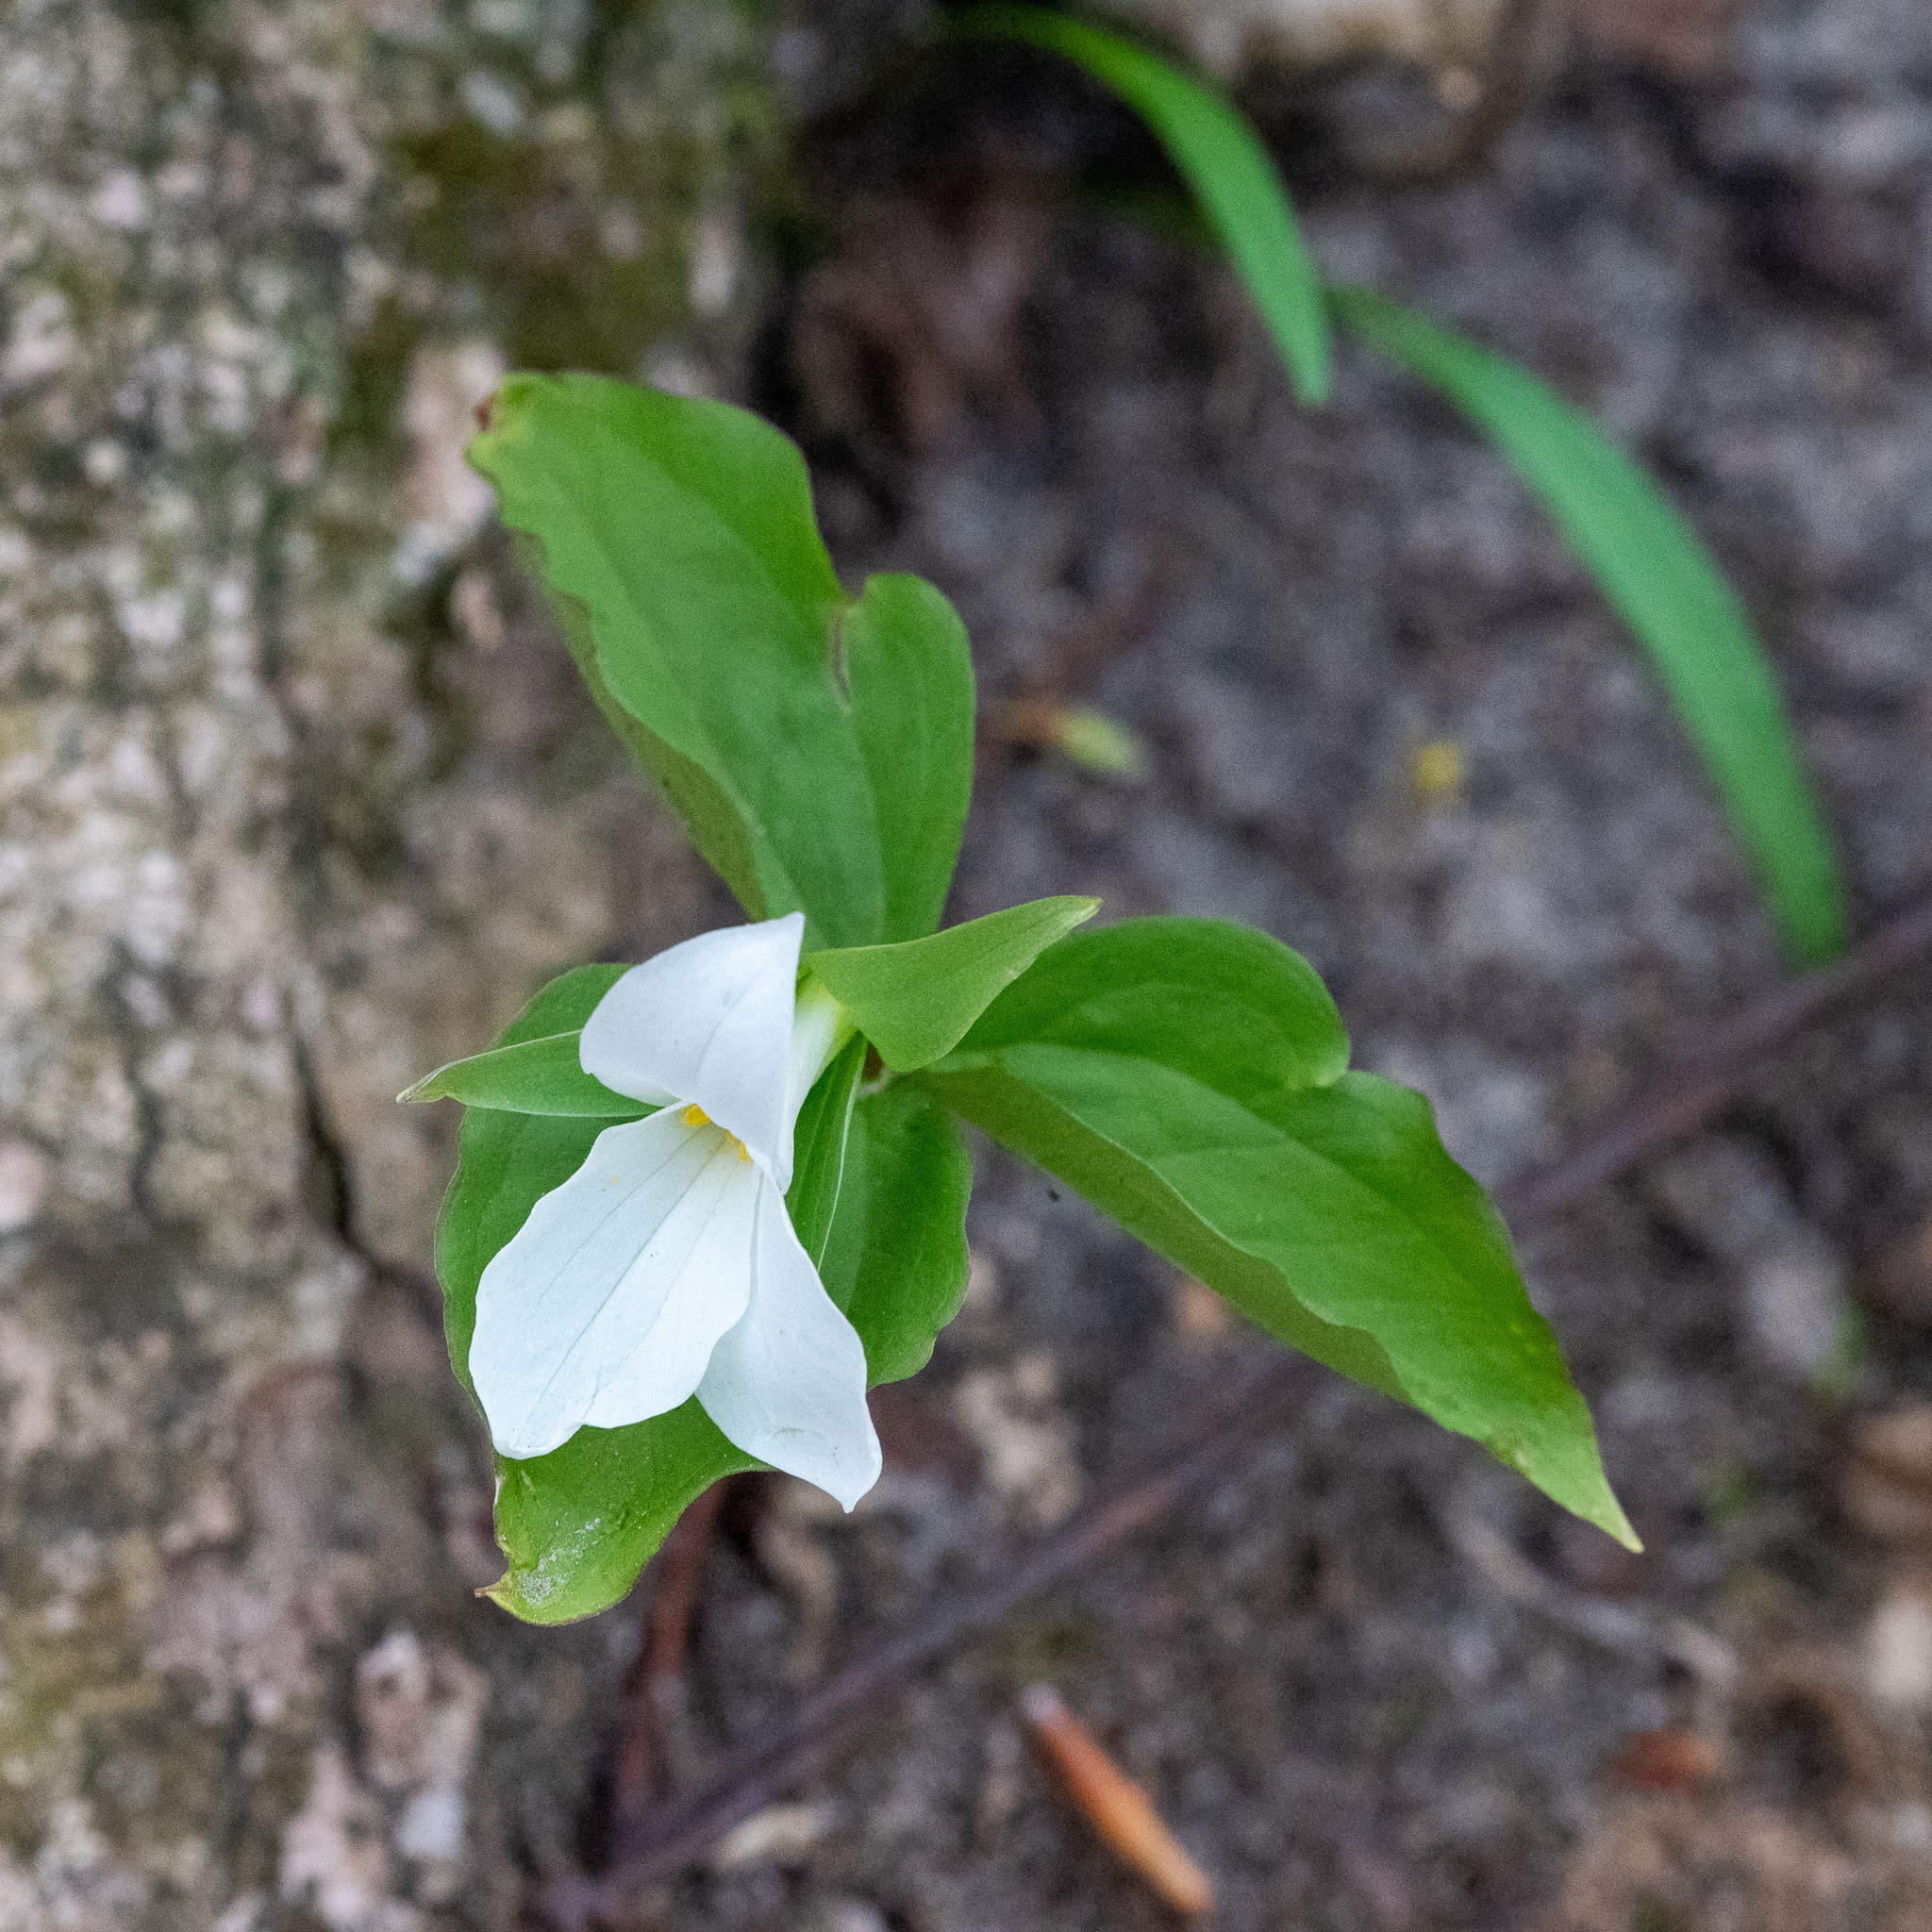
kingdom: Plantae
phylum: Tracheophyta
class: Liliopsida
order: Liliales
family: Melanthiaceae
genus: Trillium
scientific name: Trillium grandiflorum
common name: Great white trillium
